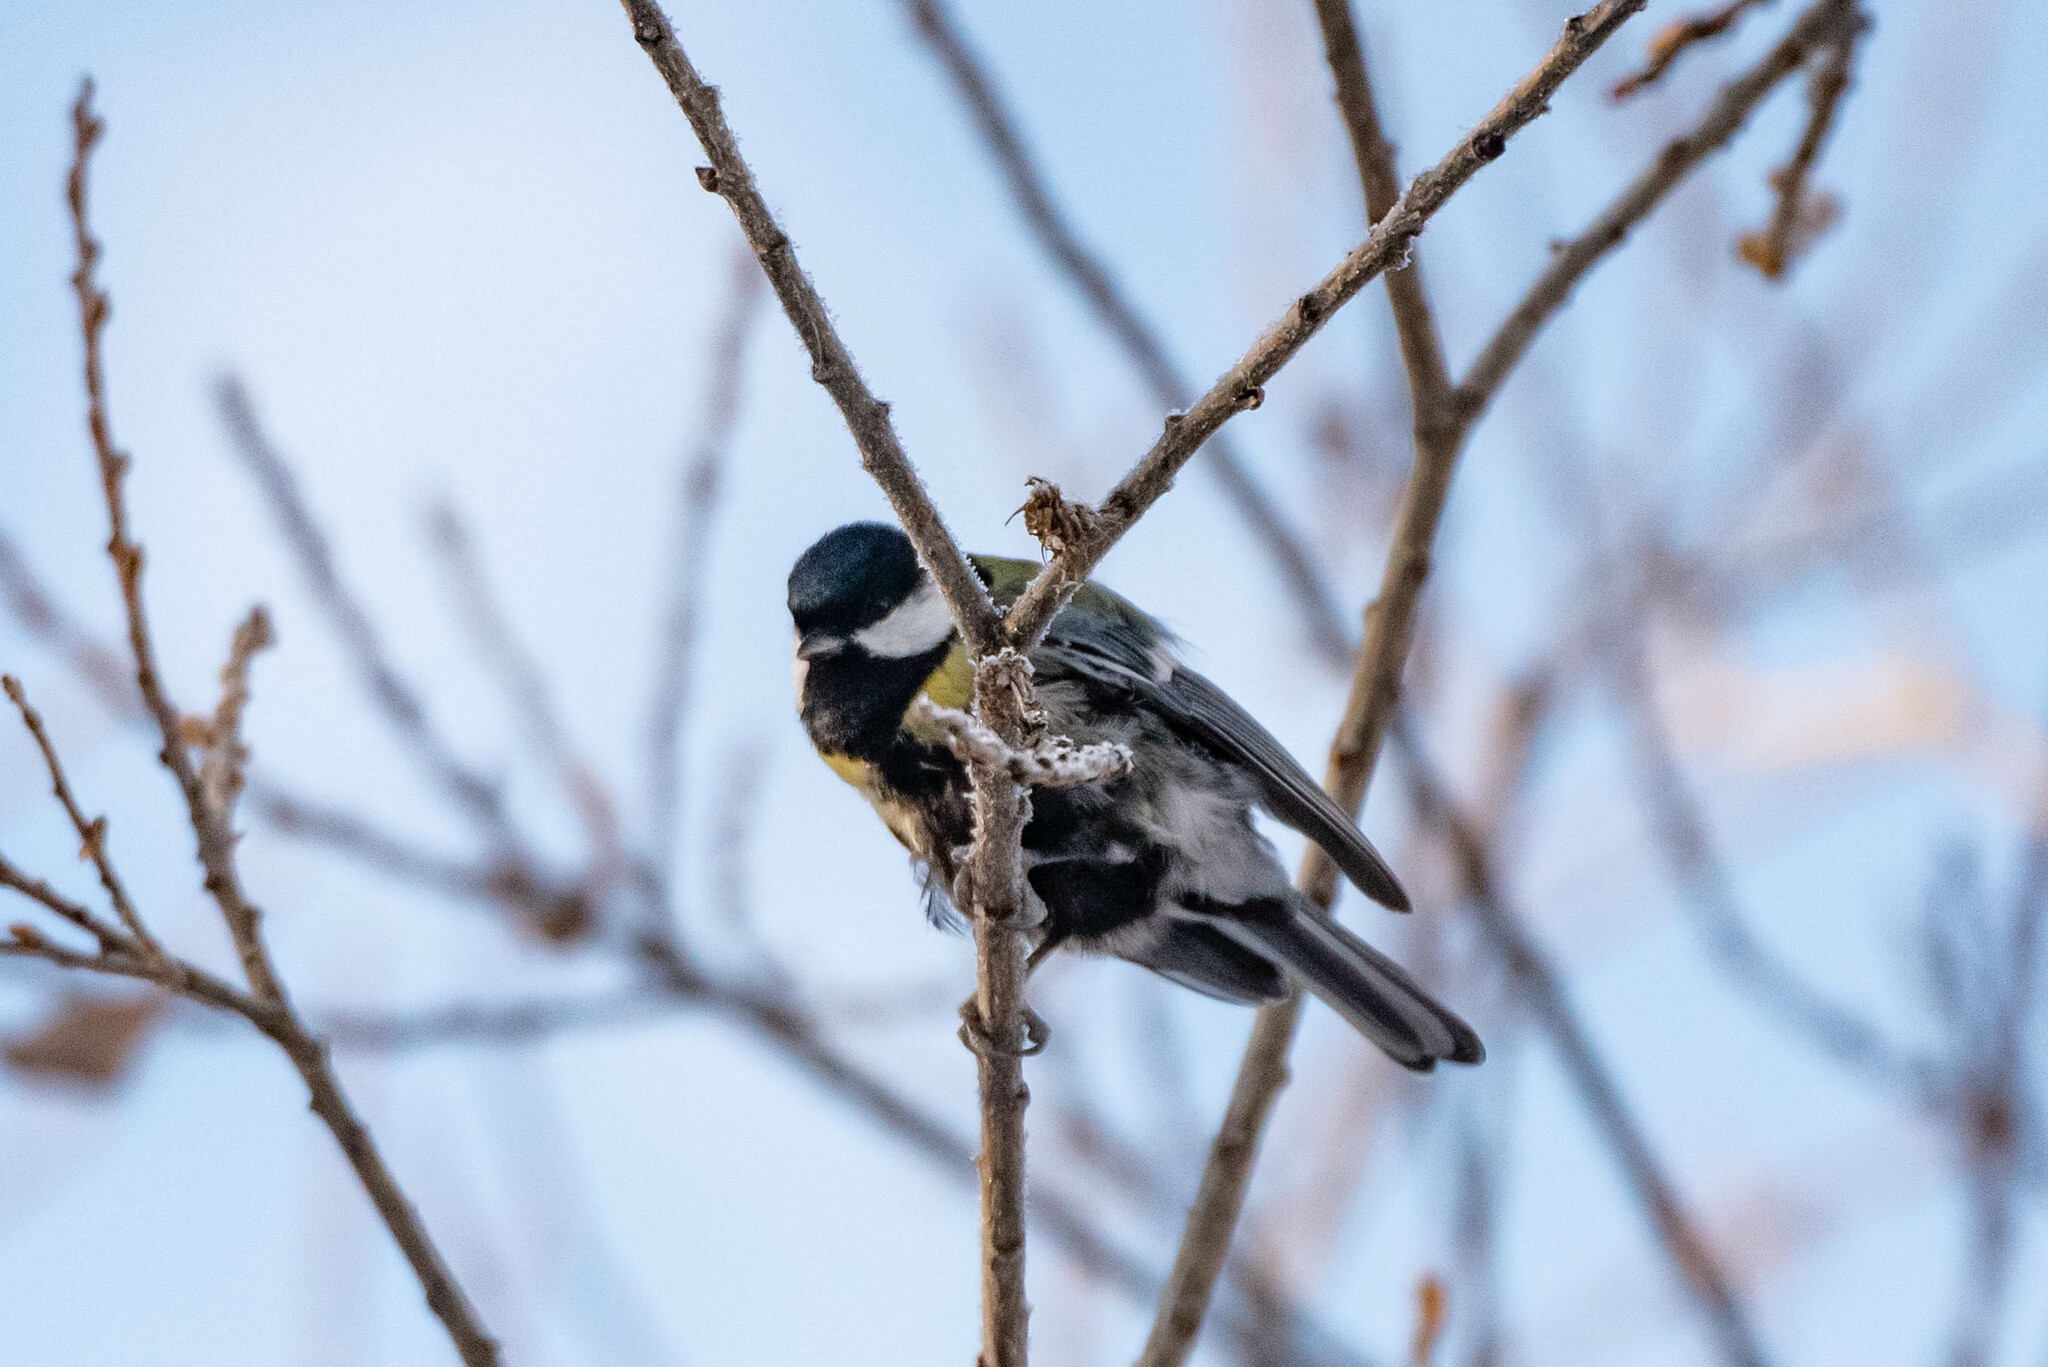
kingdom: Animalia
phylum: Chordata
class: Aves
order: Passeriformes
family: Paridae
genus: Parus
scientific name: Parus major
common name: Great tit
